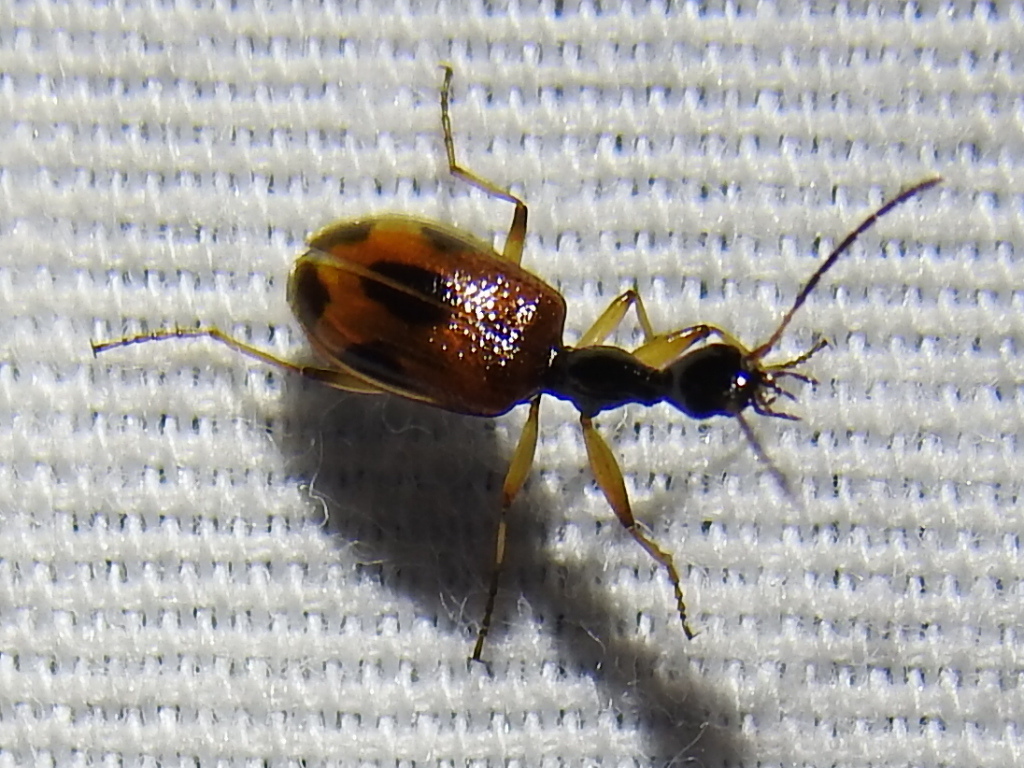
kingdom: Animalia
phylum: Arthropoda
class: Insecta
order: Coleoptera
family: Carabidae
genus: Colliuris
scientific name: Colliuris pensylvanica
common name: Long-necked ground beetle
